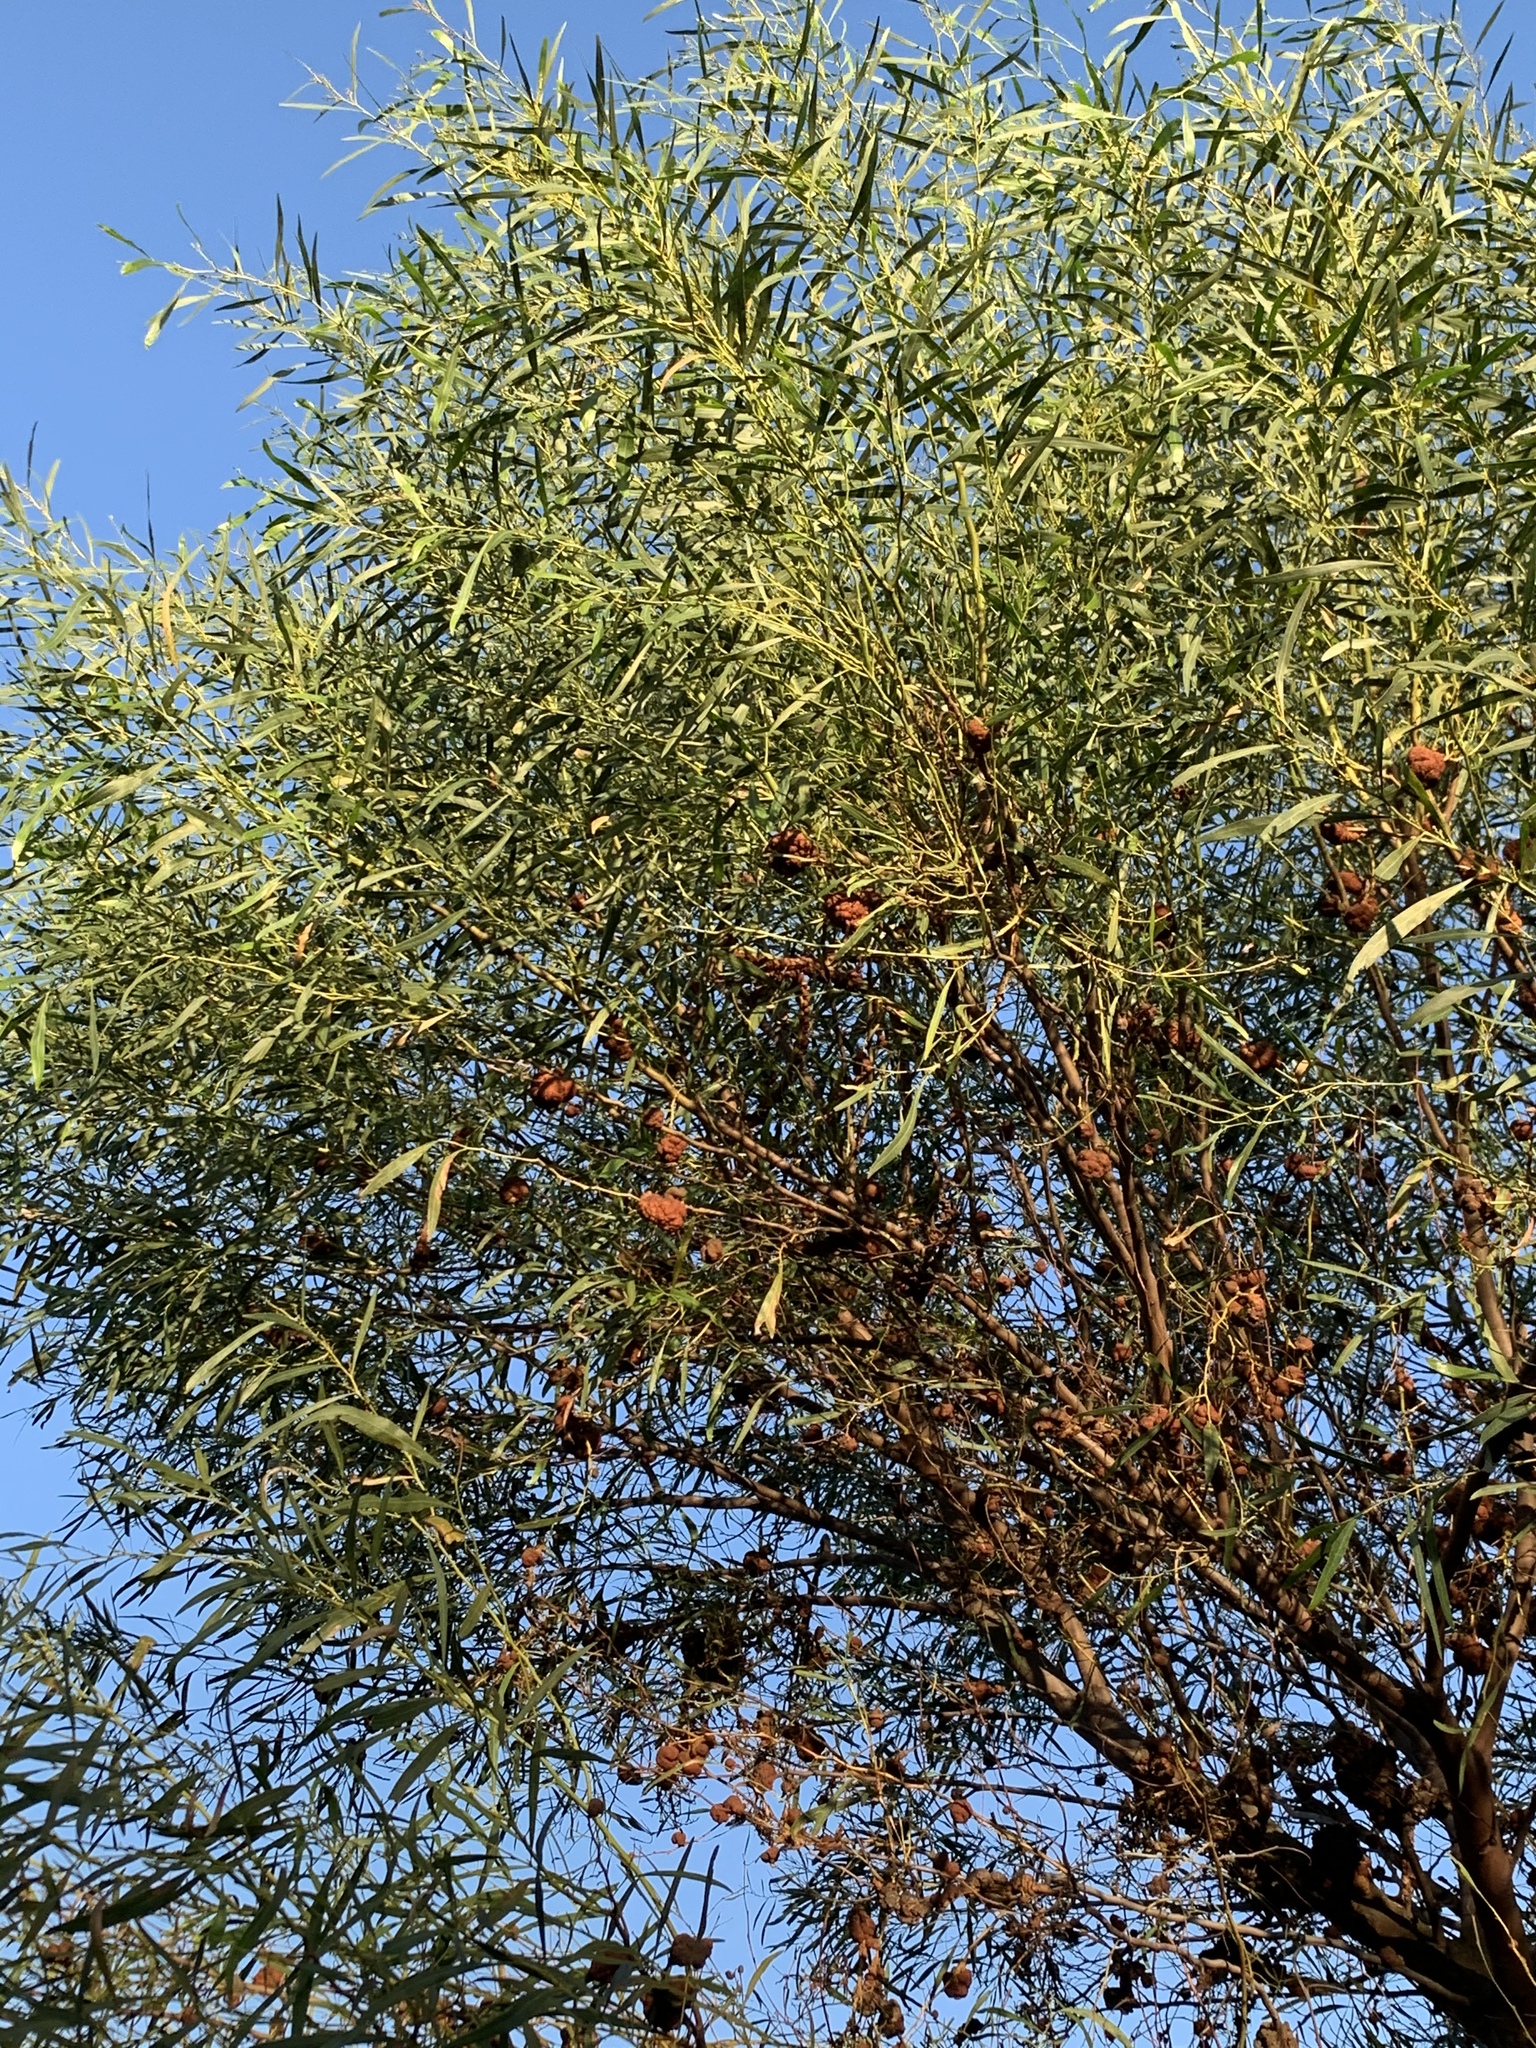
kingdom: Plantae
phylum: Tracheophyta
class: Magnoliopsida
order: Fabales
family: Fabaceae
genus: Acacia
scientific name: Acacia saligna
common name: Orange wattle
